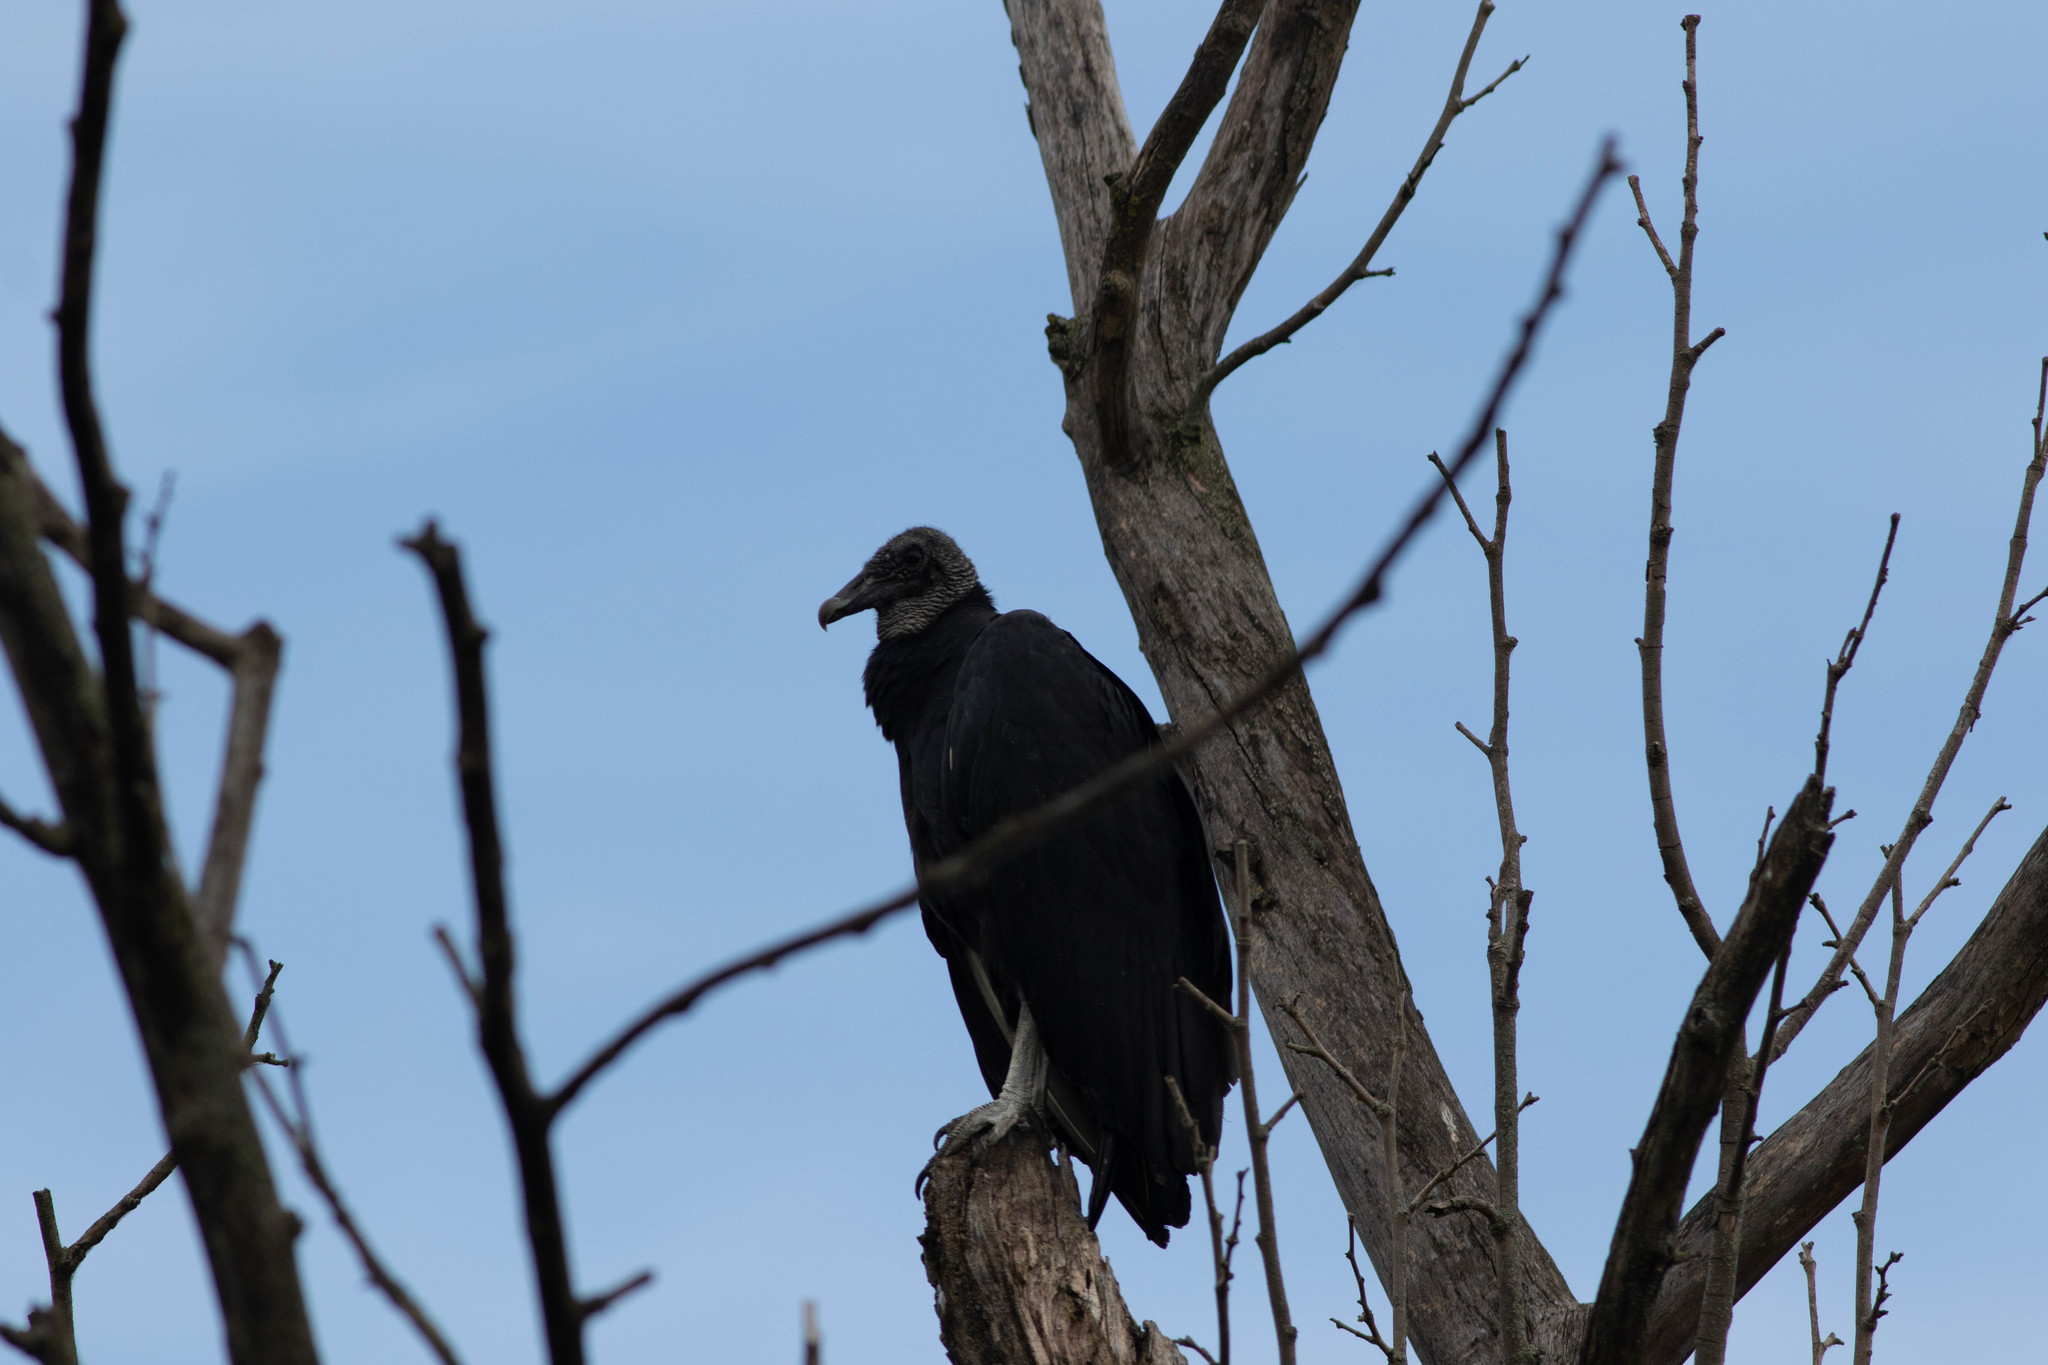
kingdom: Animalia
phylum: Chordata
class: Aves
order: Accipitriformes
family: Cathartidae
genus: Coragyps
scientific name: Coragyps atratus
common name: Black vulture
